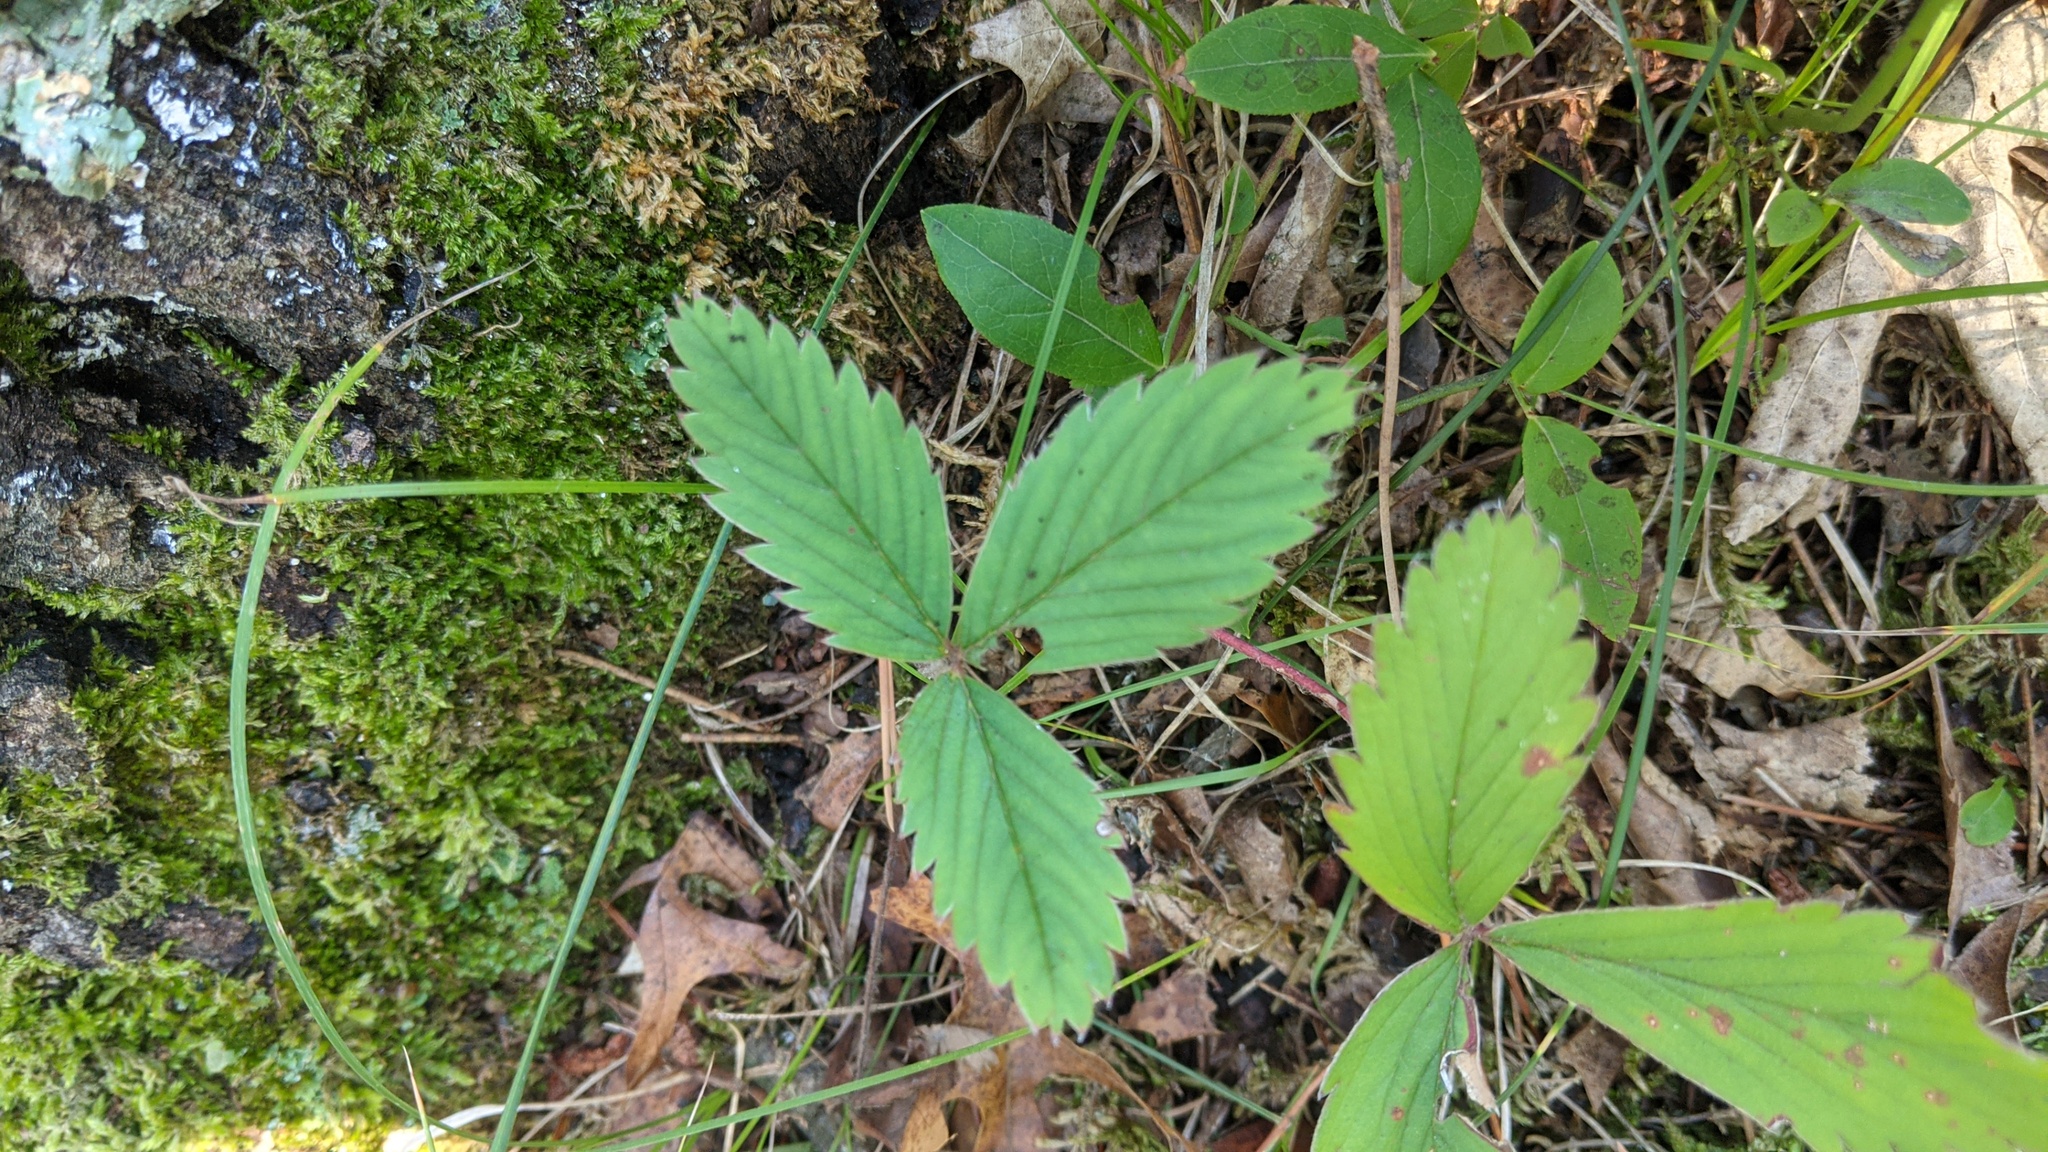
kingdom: Plantae
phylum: Tracheophyta
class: Magnoliopsida
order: Rosales
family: Rosaceae
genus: Fragaria
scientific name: Fragaria virginiana
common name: Thickleaved wild strawberry
